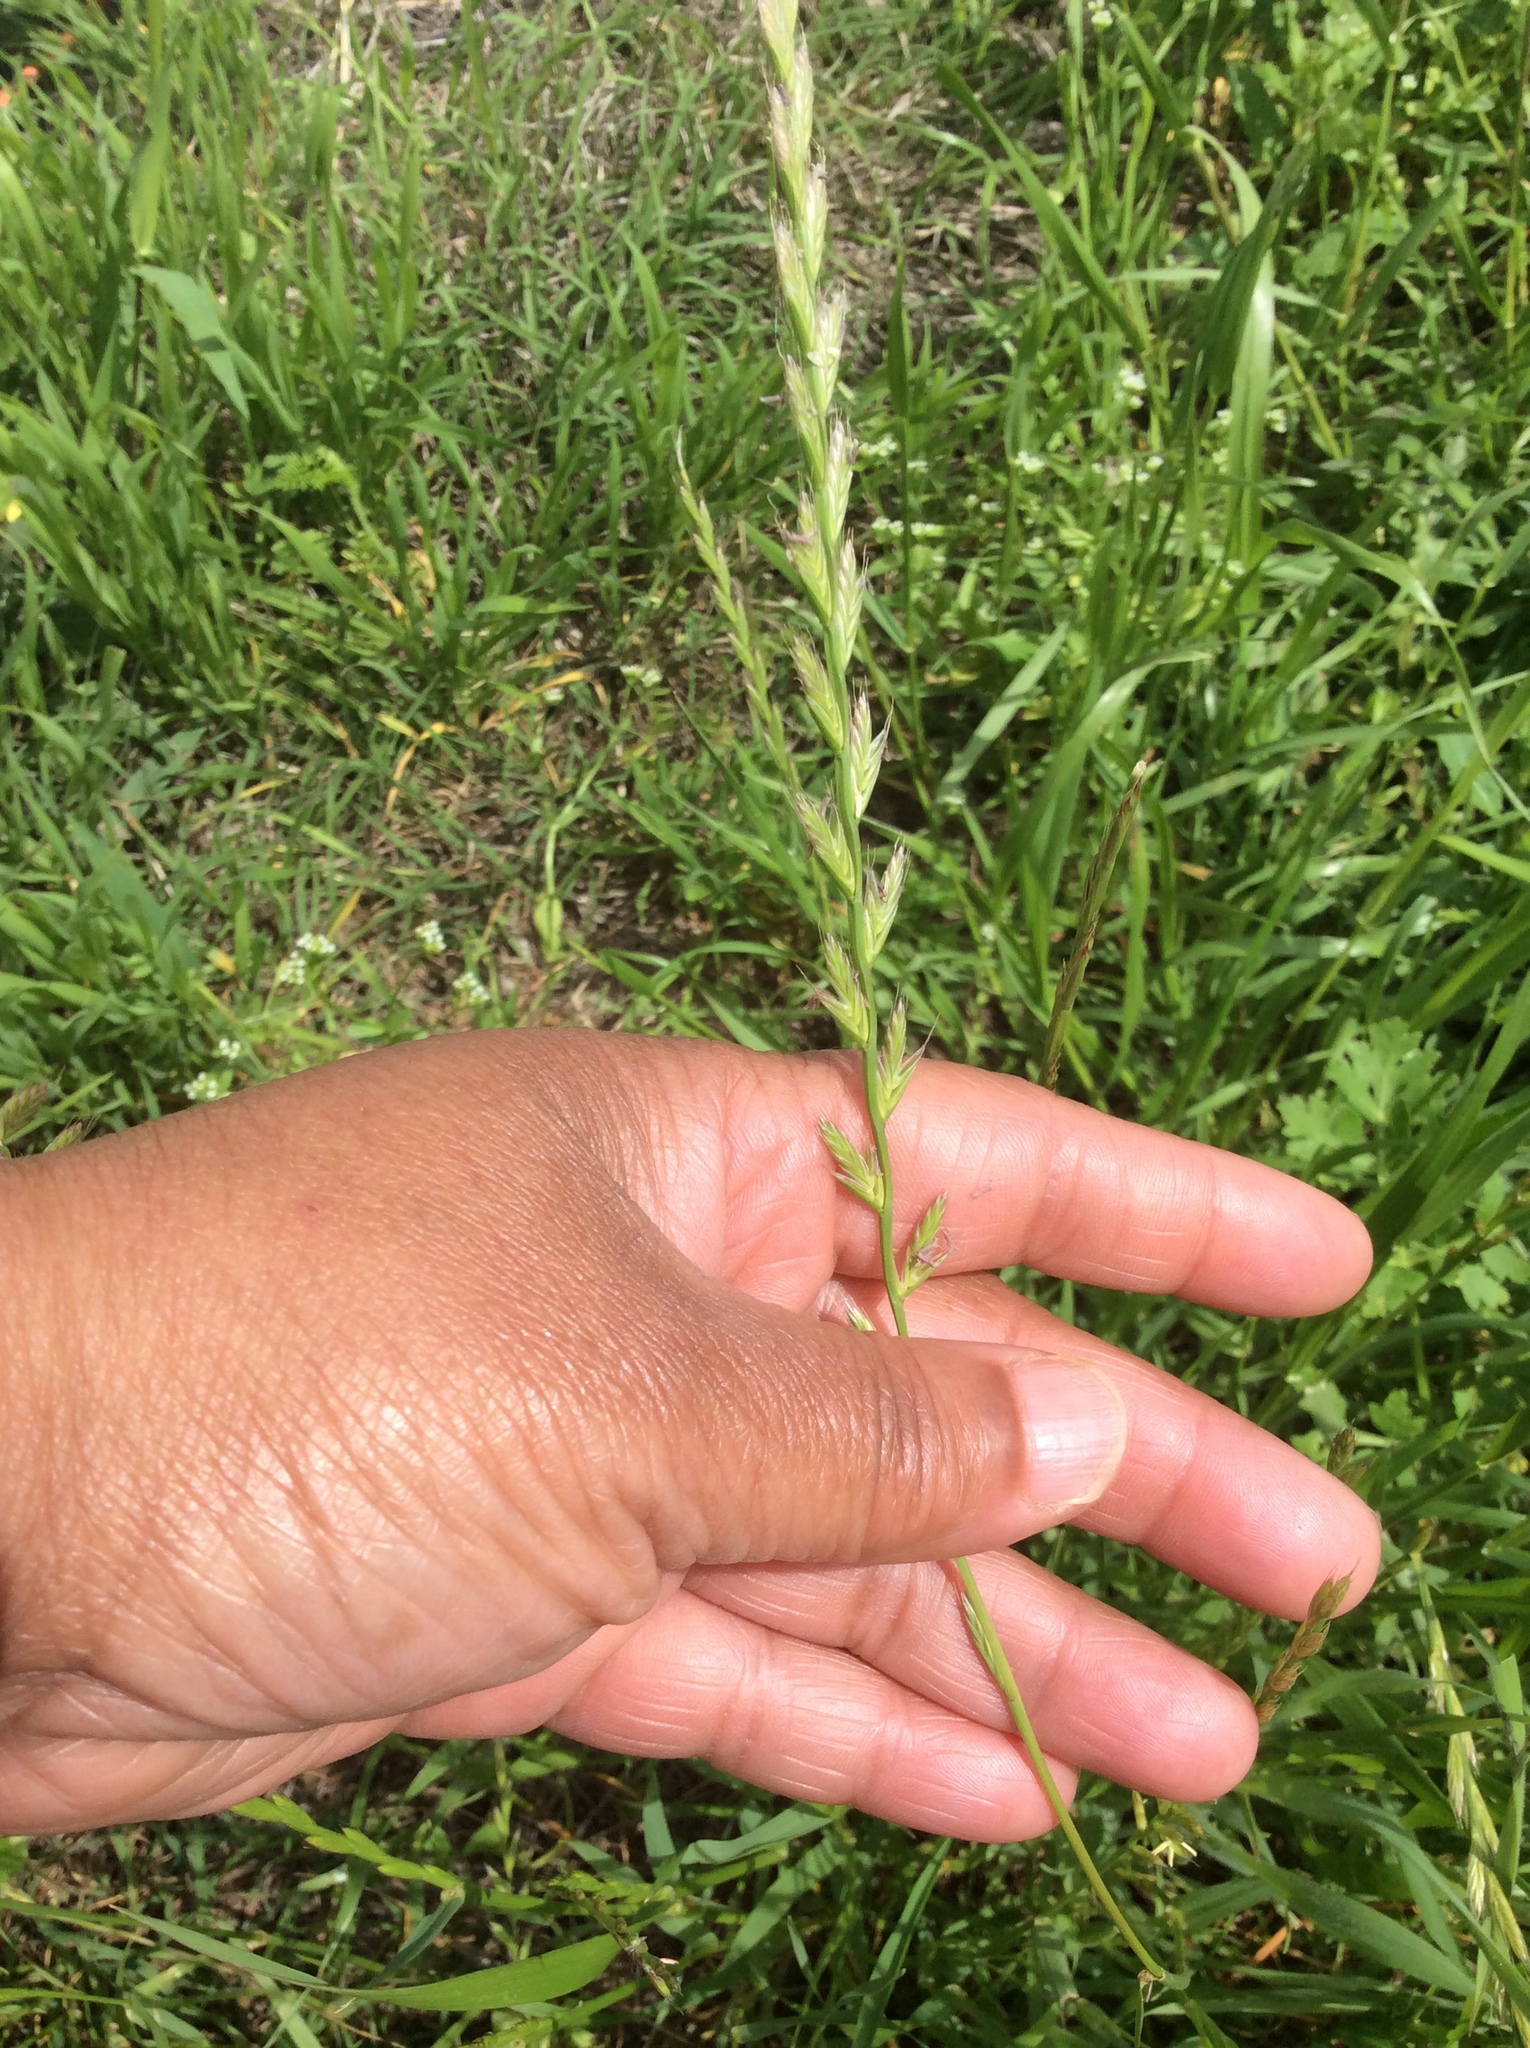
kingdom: Plantae
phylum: Tracheophyta
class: Liliopsida
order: Poales
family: Poaceae
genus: Lolium
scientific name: Lolium multiflorum
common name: Annual ryegrass
